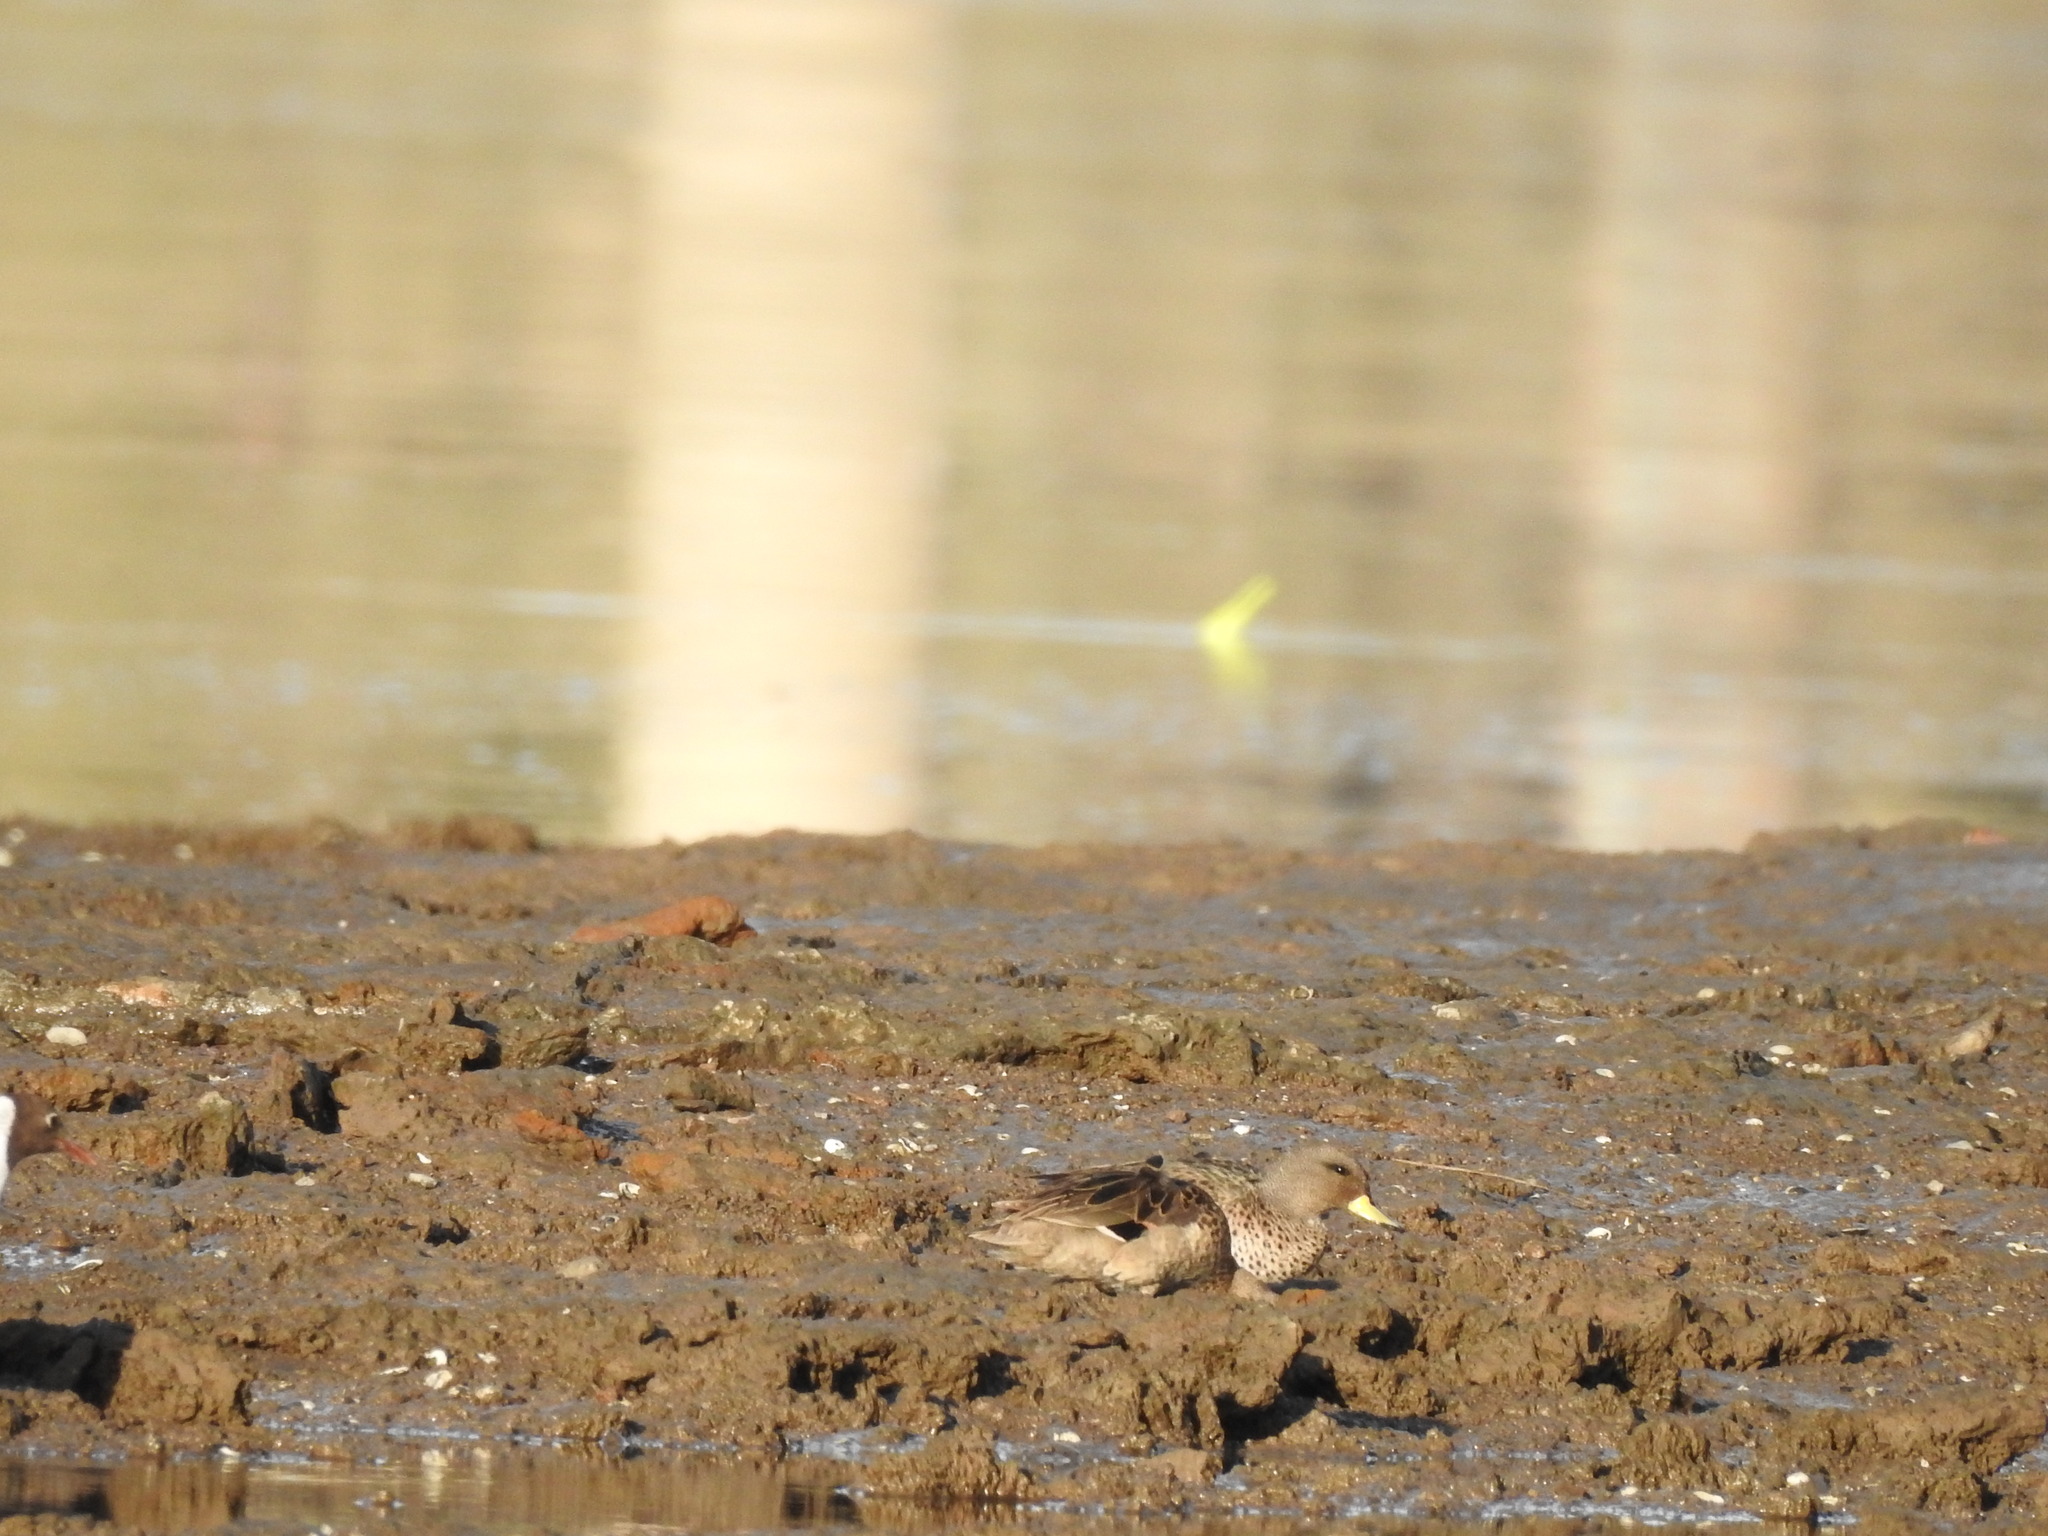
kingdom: Animalia
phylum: Chordata
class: Aves
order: Anseriformes
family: Anatidae
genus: Anas
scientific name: Anas flavirostris
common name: Yellow-billed teal
